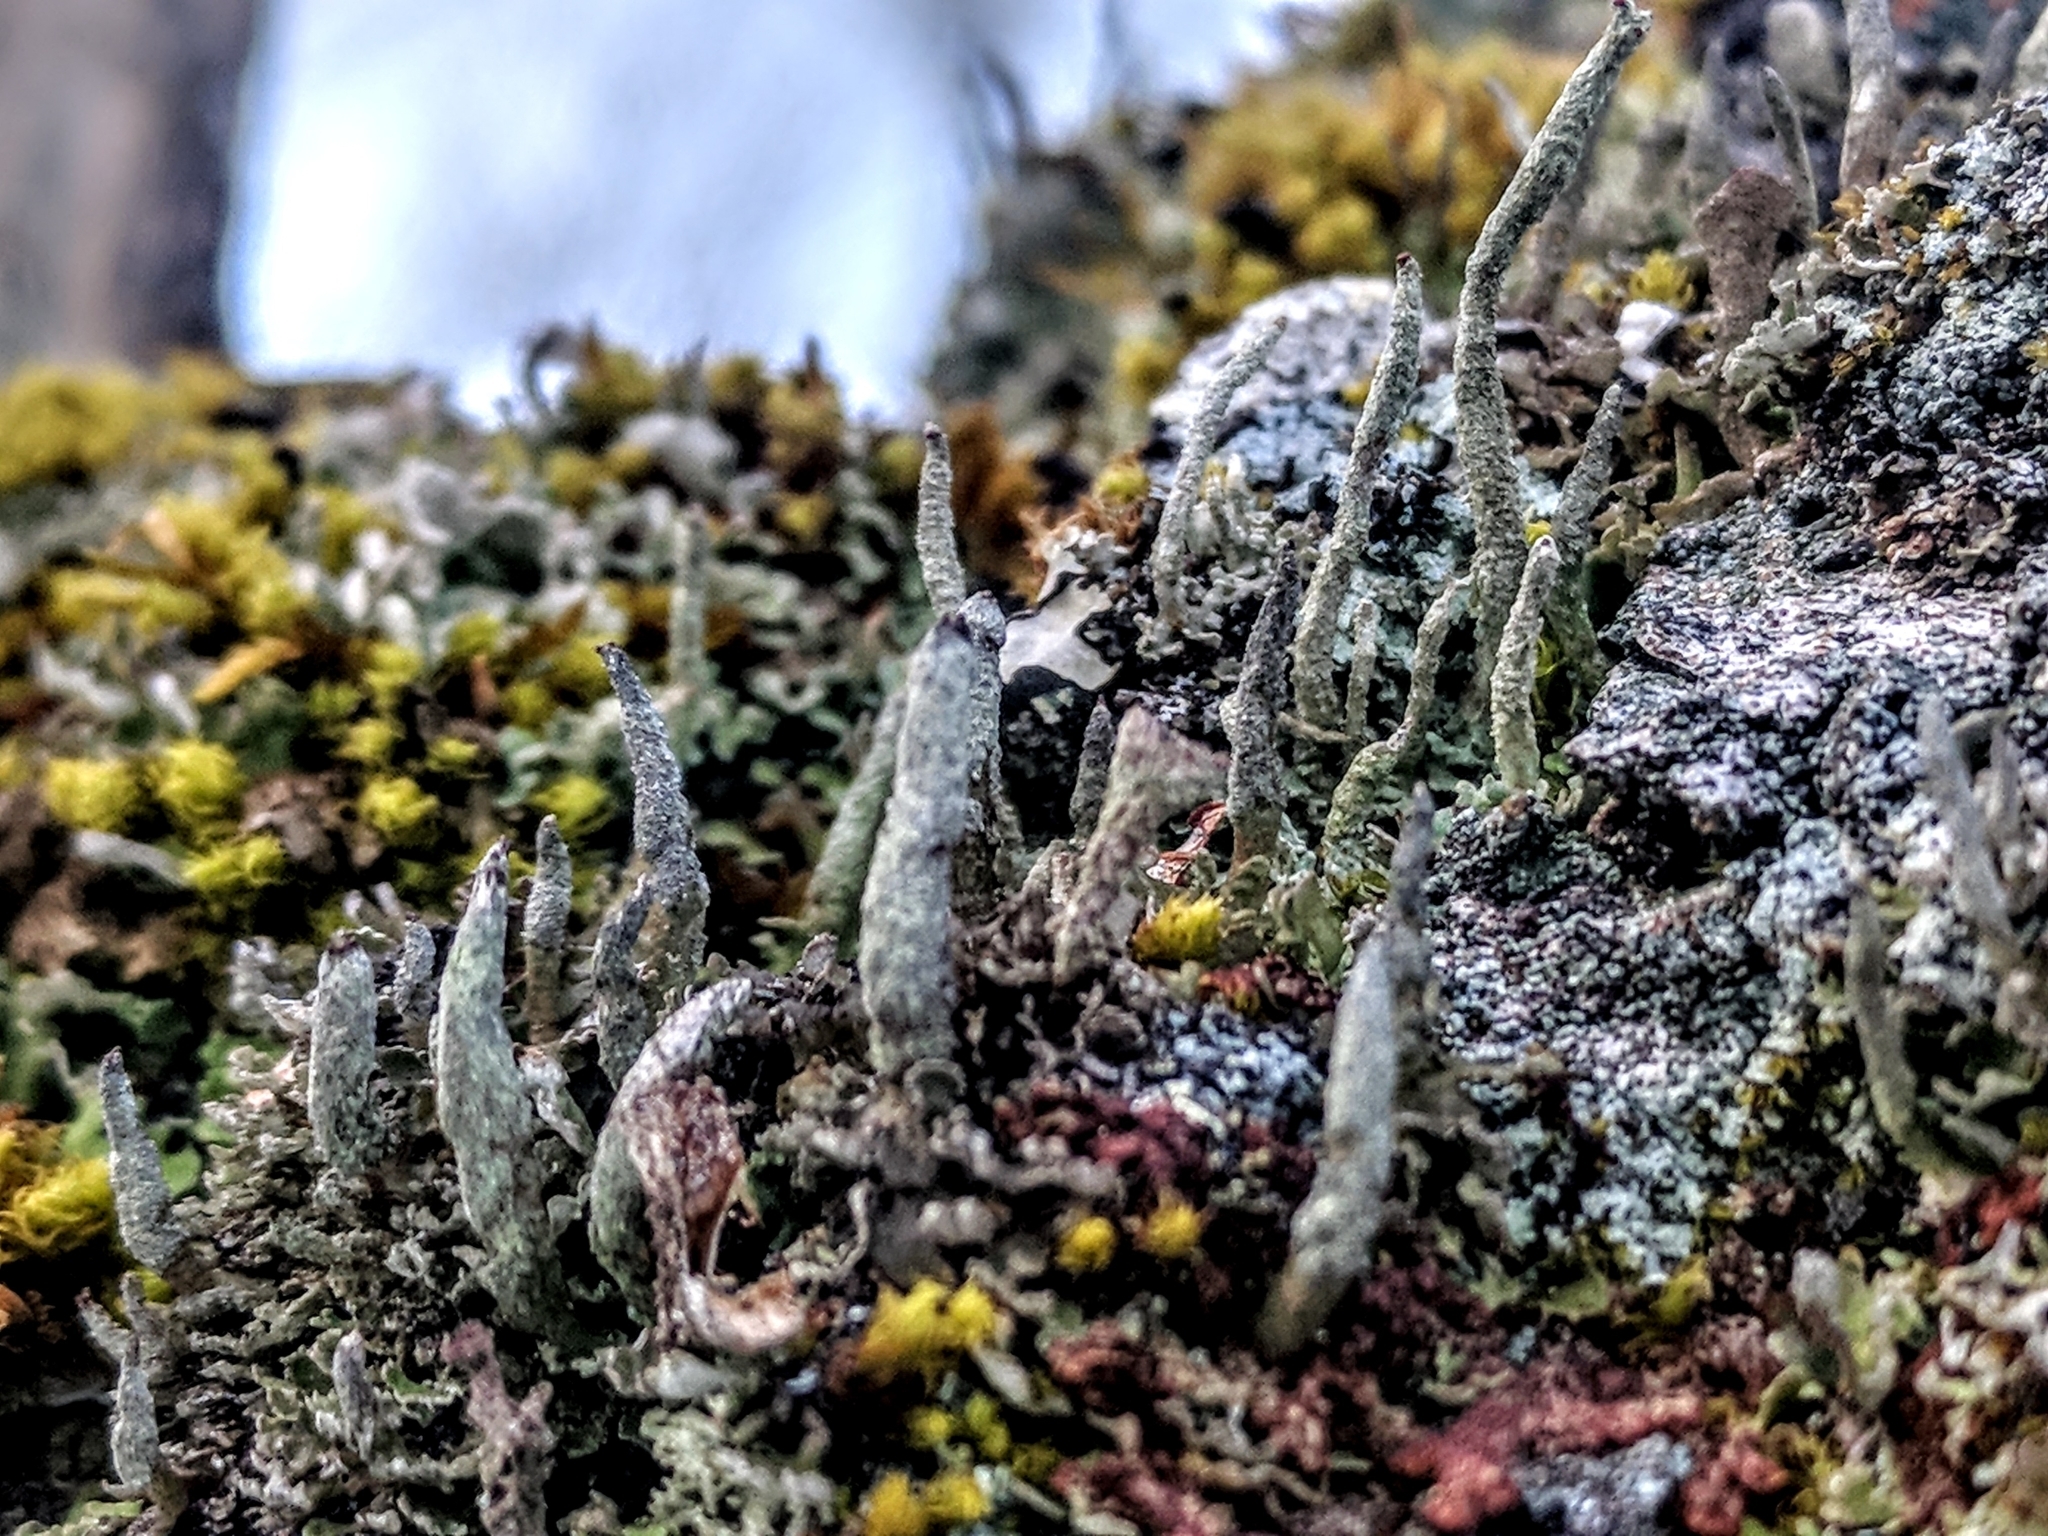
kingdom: Fungi
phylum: Ascomycota
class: Lecanoromycetes
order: Lecanorales
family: Cladoniaceae
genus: Cladonia
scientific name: Cladonia coniocraea
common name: Common powderhorn
